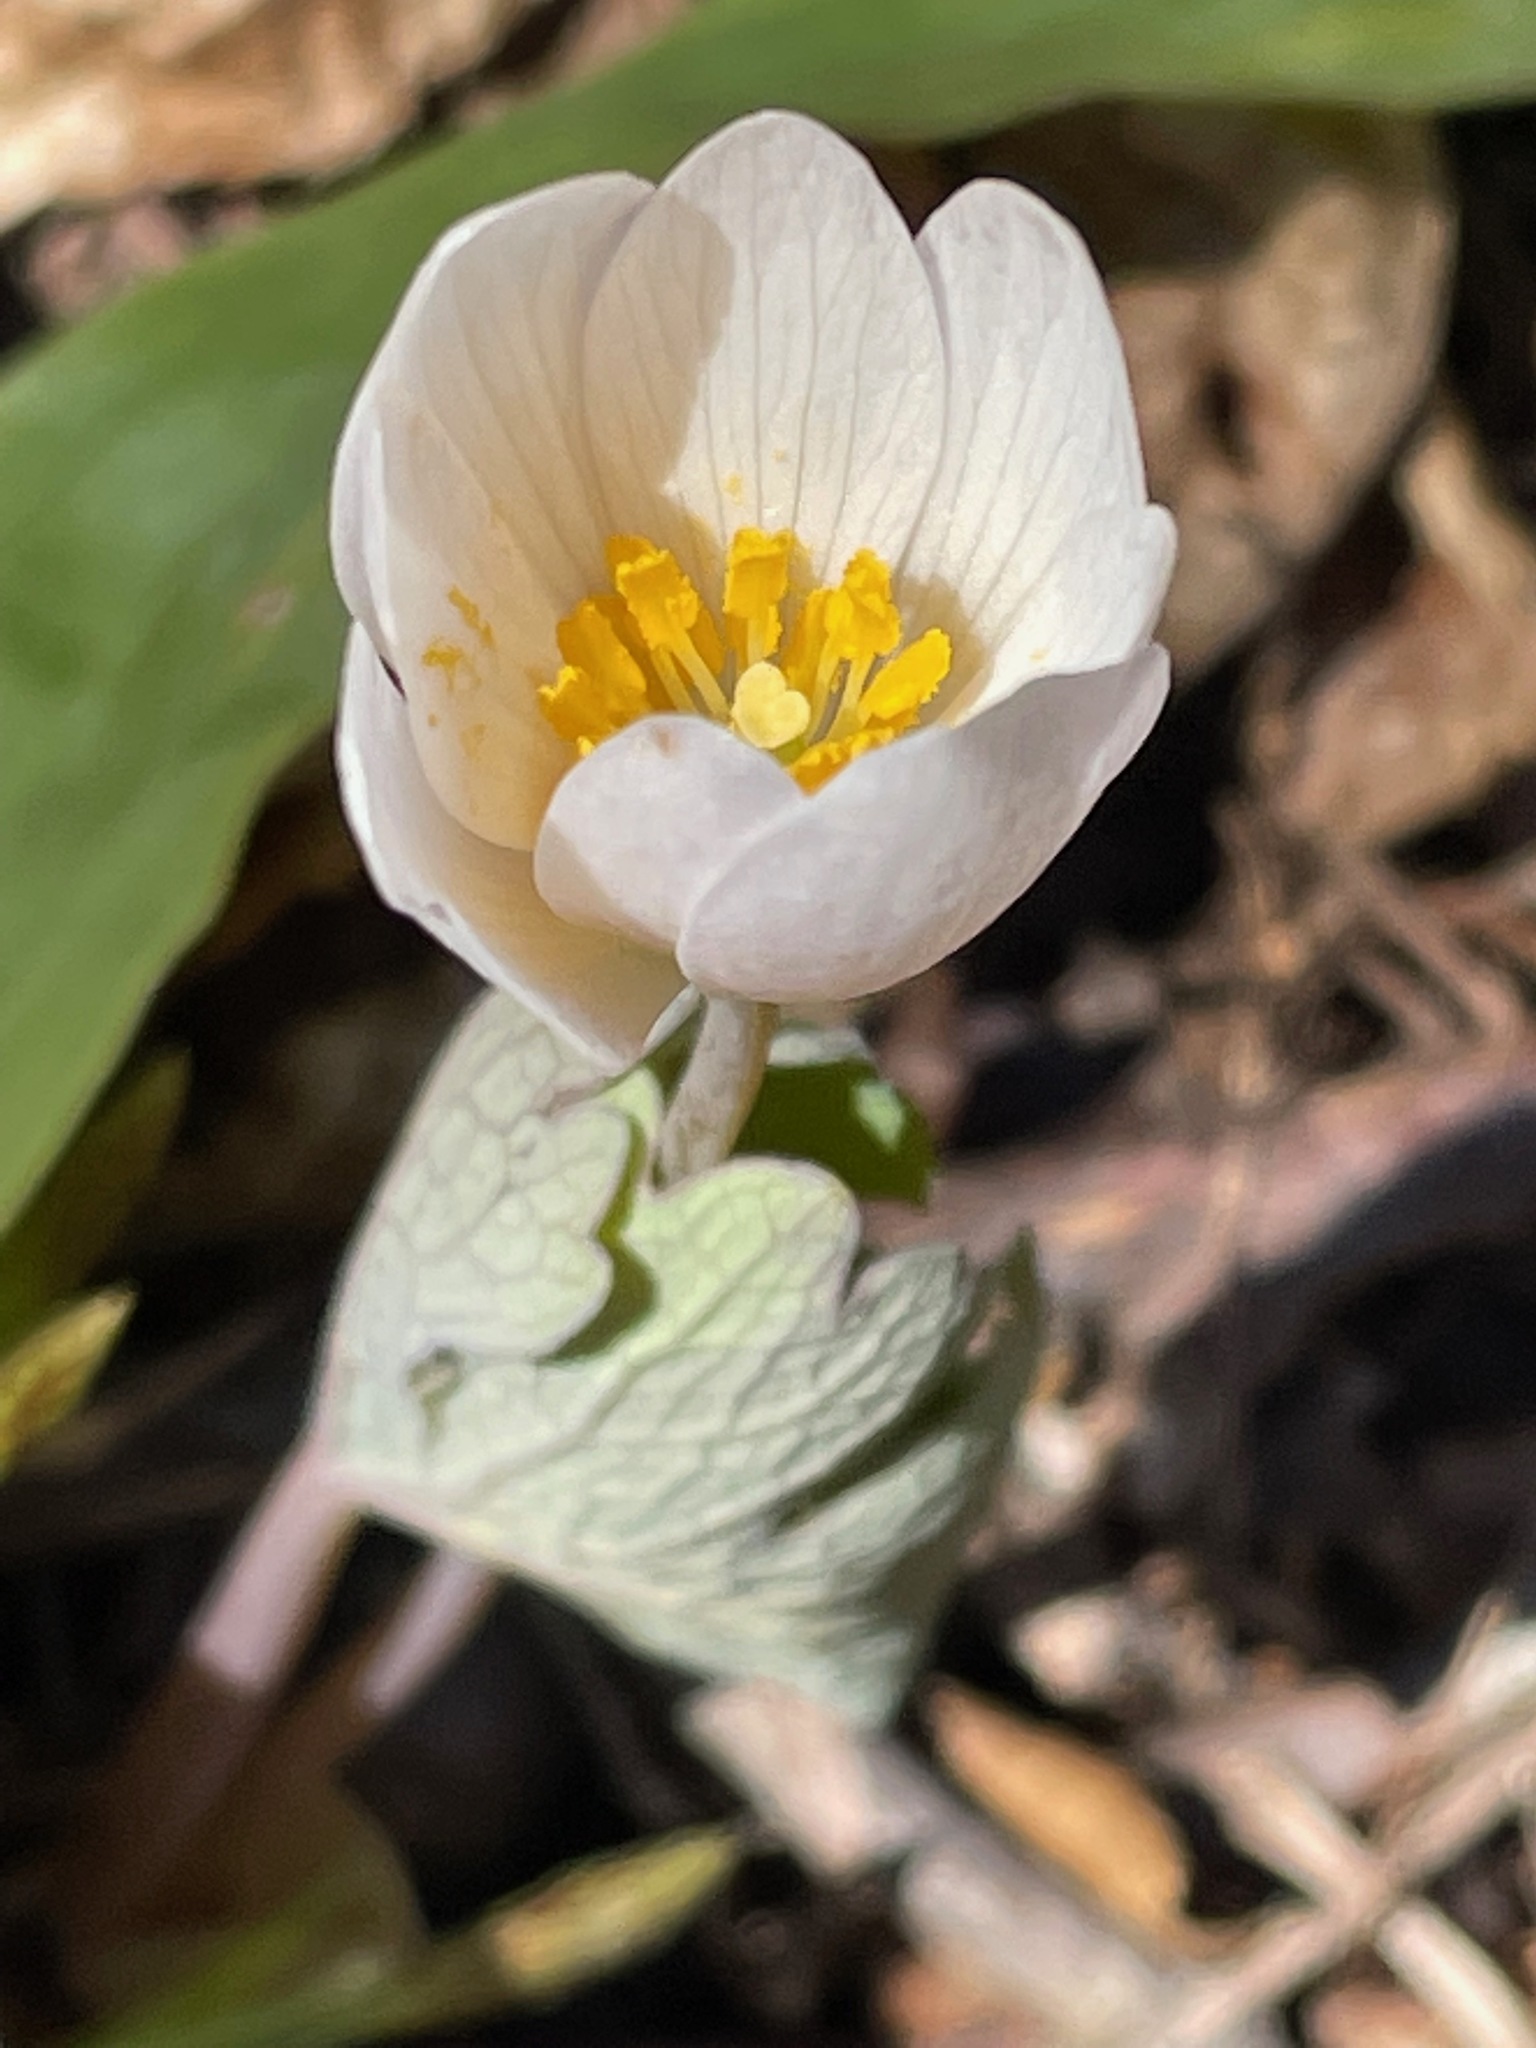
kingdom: Plantae
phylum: Tracheophyta
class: Magnoliopsida
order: Ranunculales
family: Papaveraceae
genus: Sanguinaria
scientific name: Sanguinaria canadensis
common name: Bloodroot
